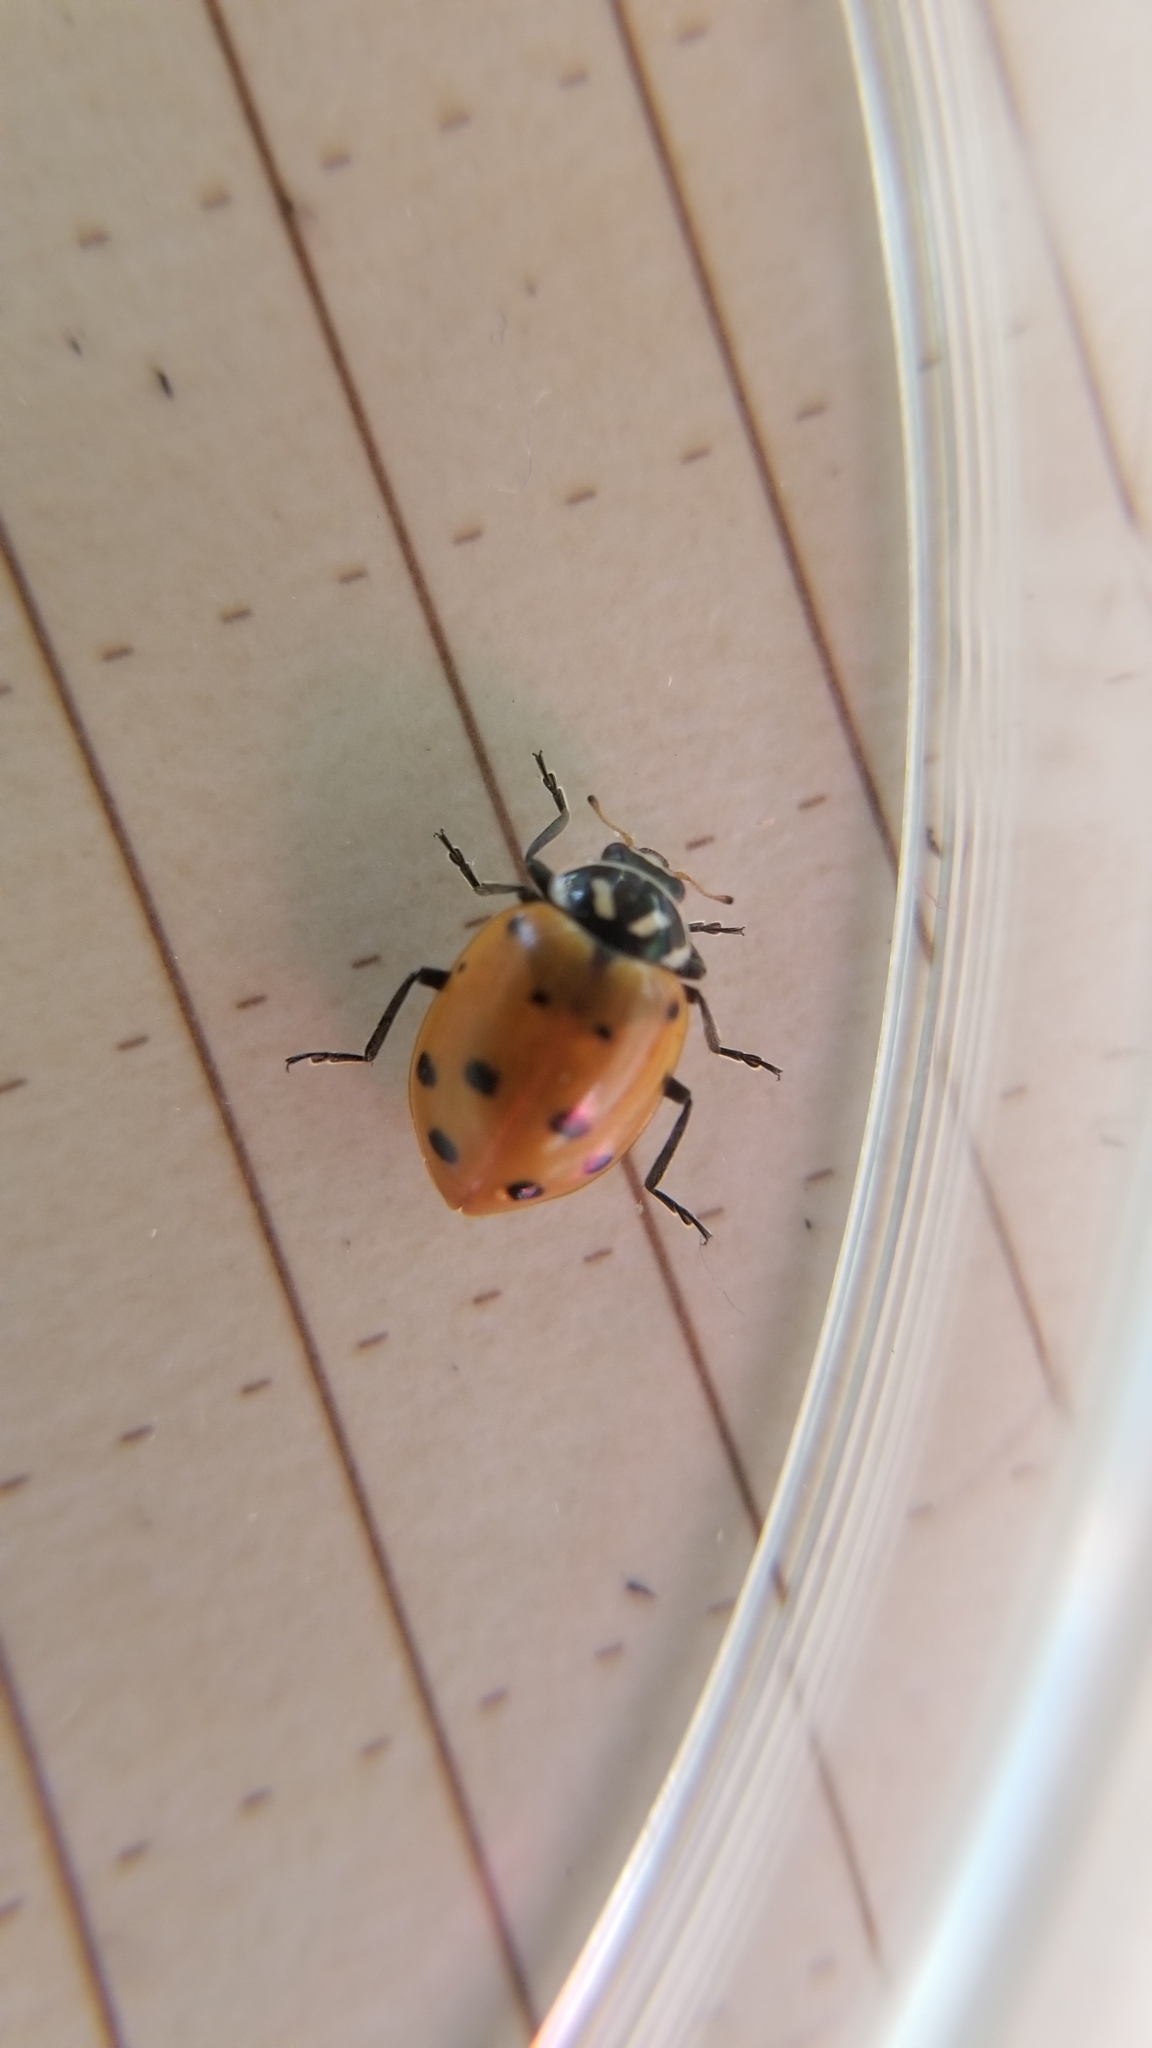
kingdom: Animalia
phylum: Arthropoda
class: Insecta
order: Coleoptera
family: Coccinellidae
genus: Hippodamia
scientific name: Hippodamia convergens
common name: Convergent lady beetle
